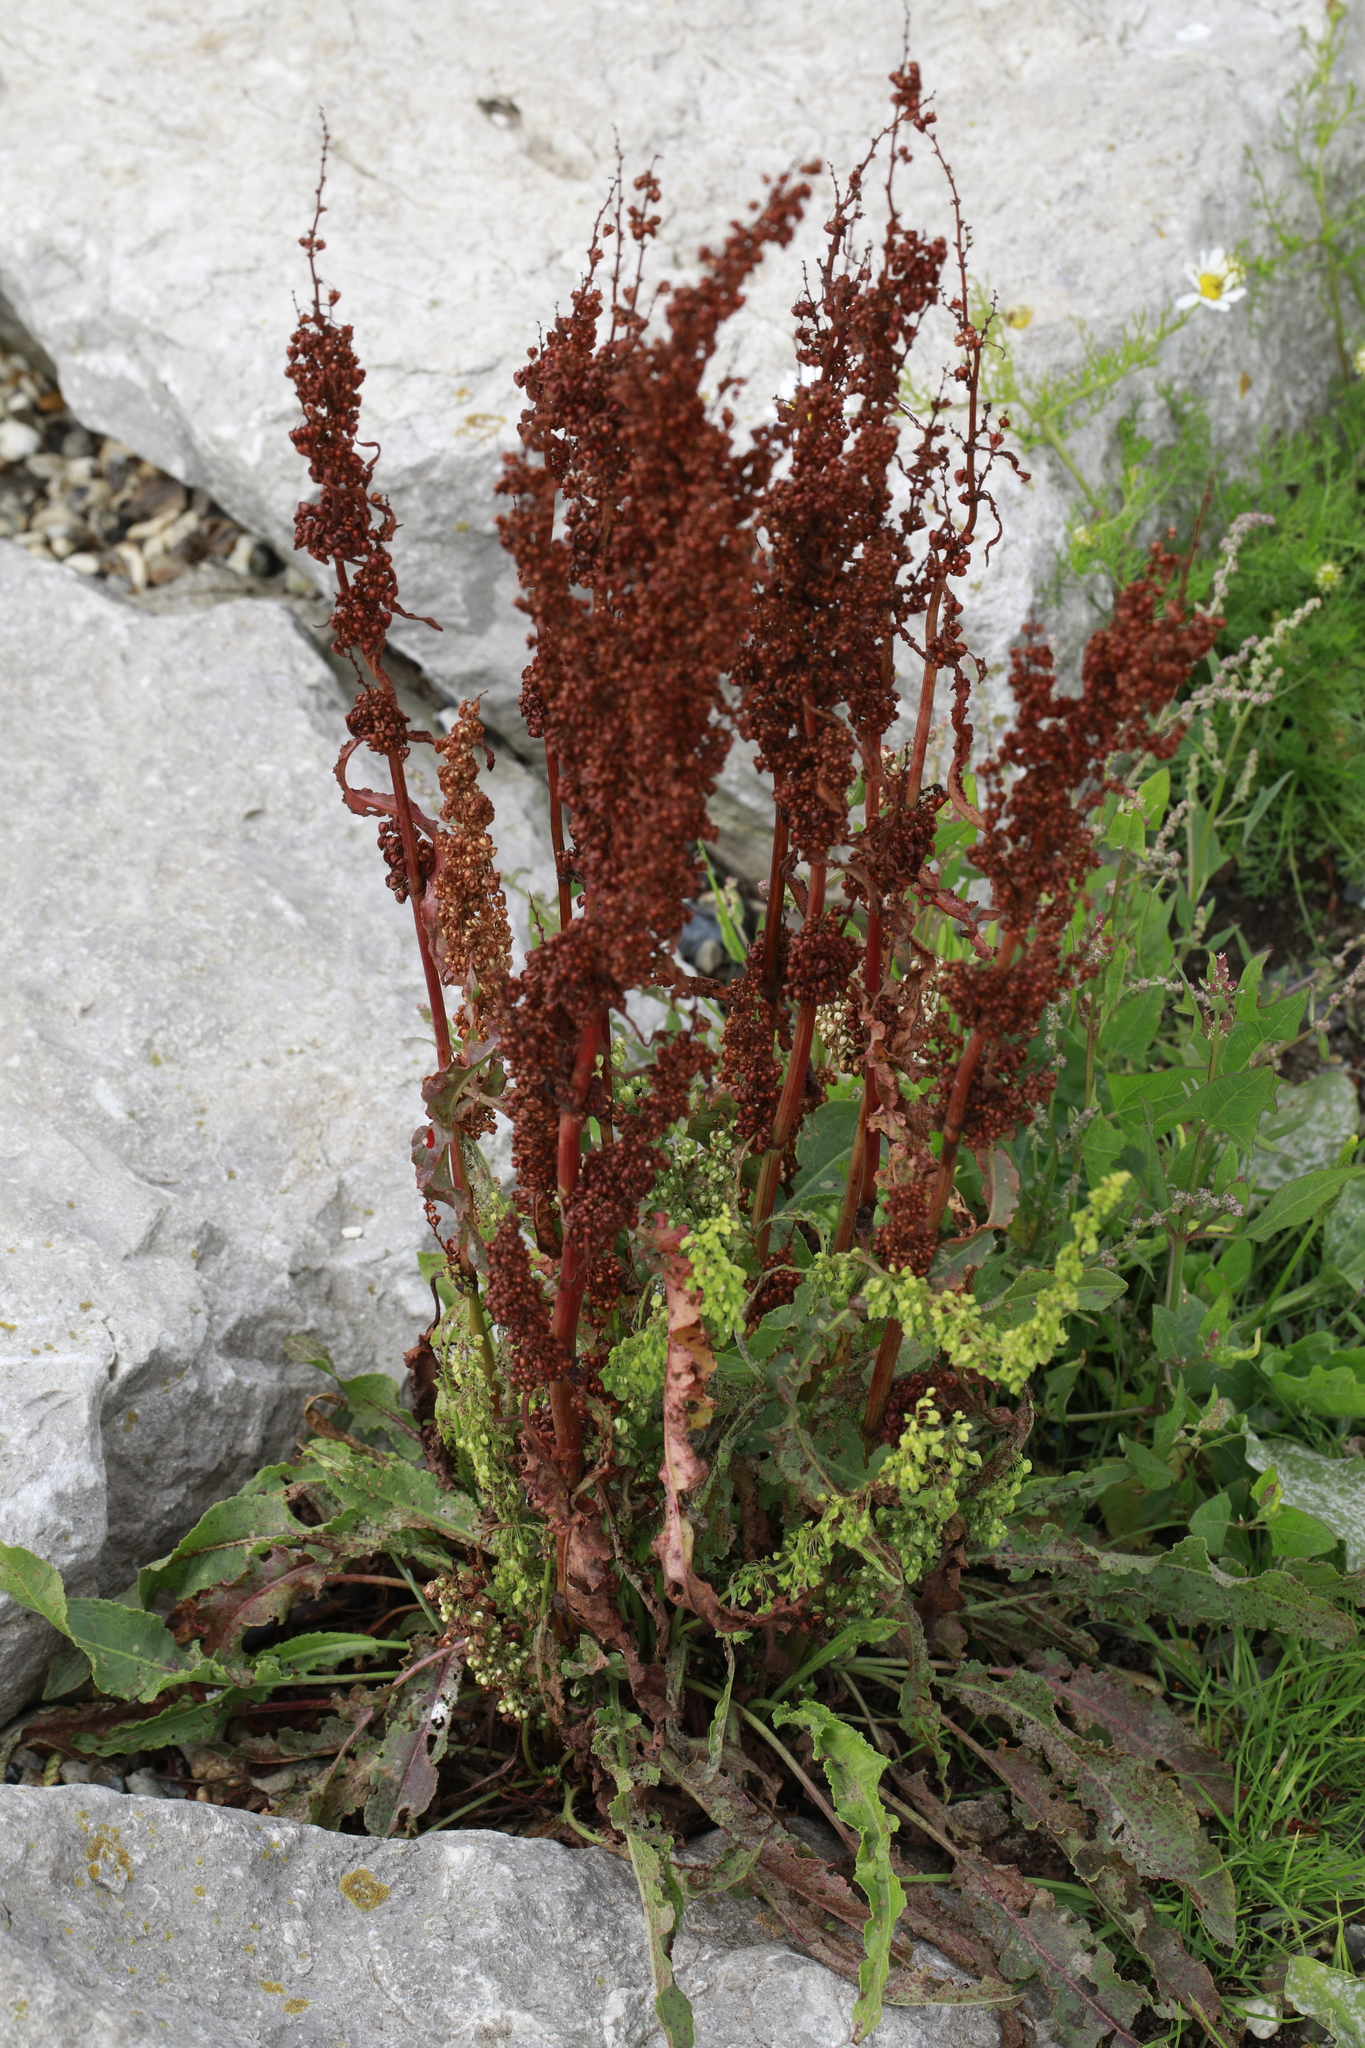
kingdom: Plantae
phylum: Tracheophyta
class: Magnoliopsida
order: Caryophyllales
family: Polygonaceae
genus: Rumex
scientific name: Rumex crispus
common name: Curled dock
